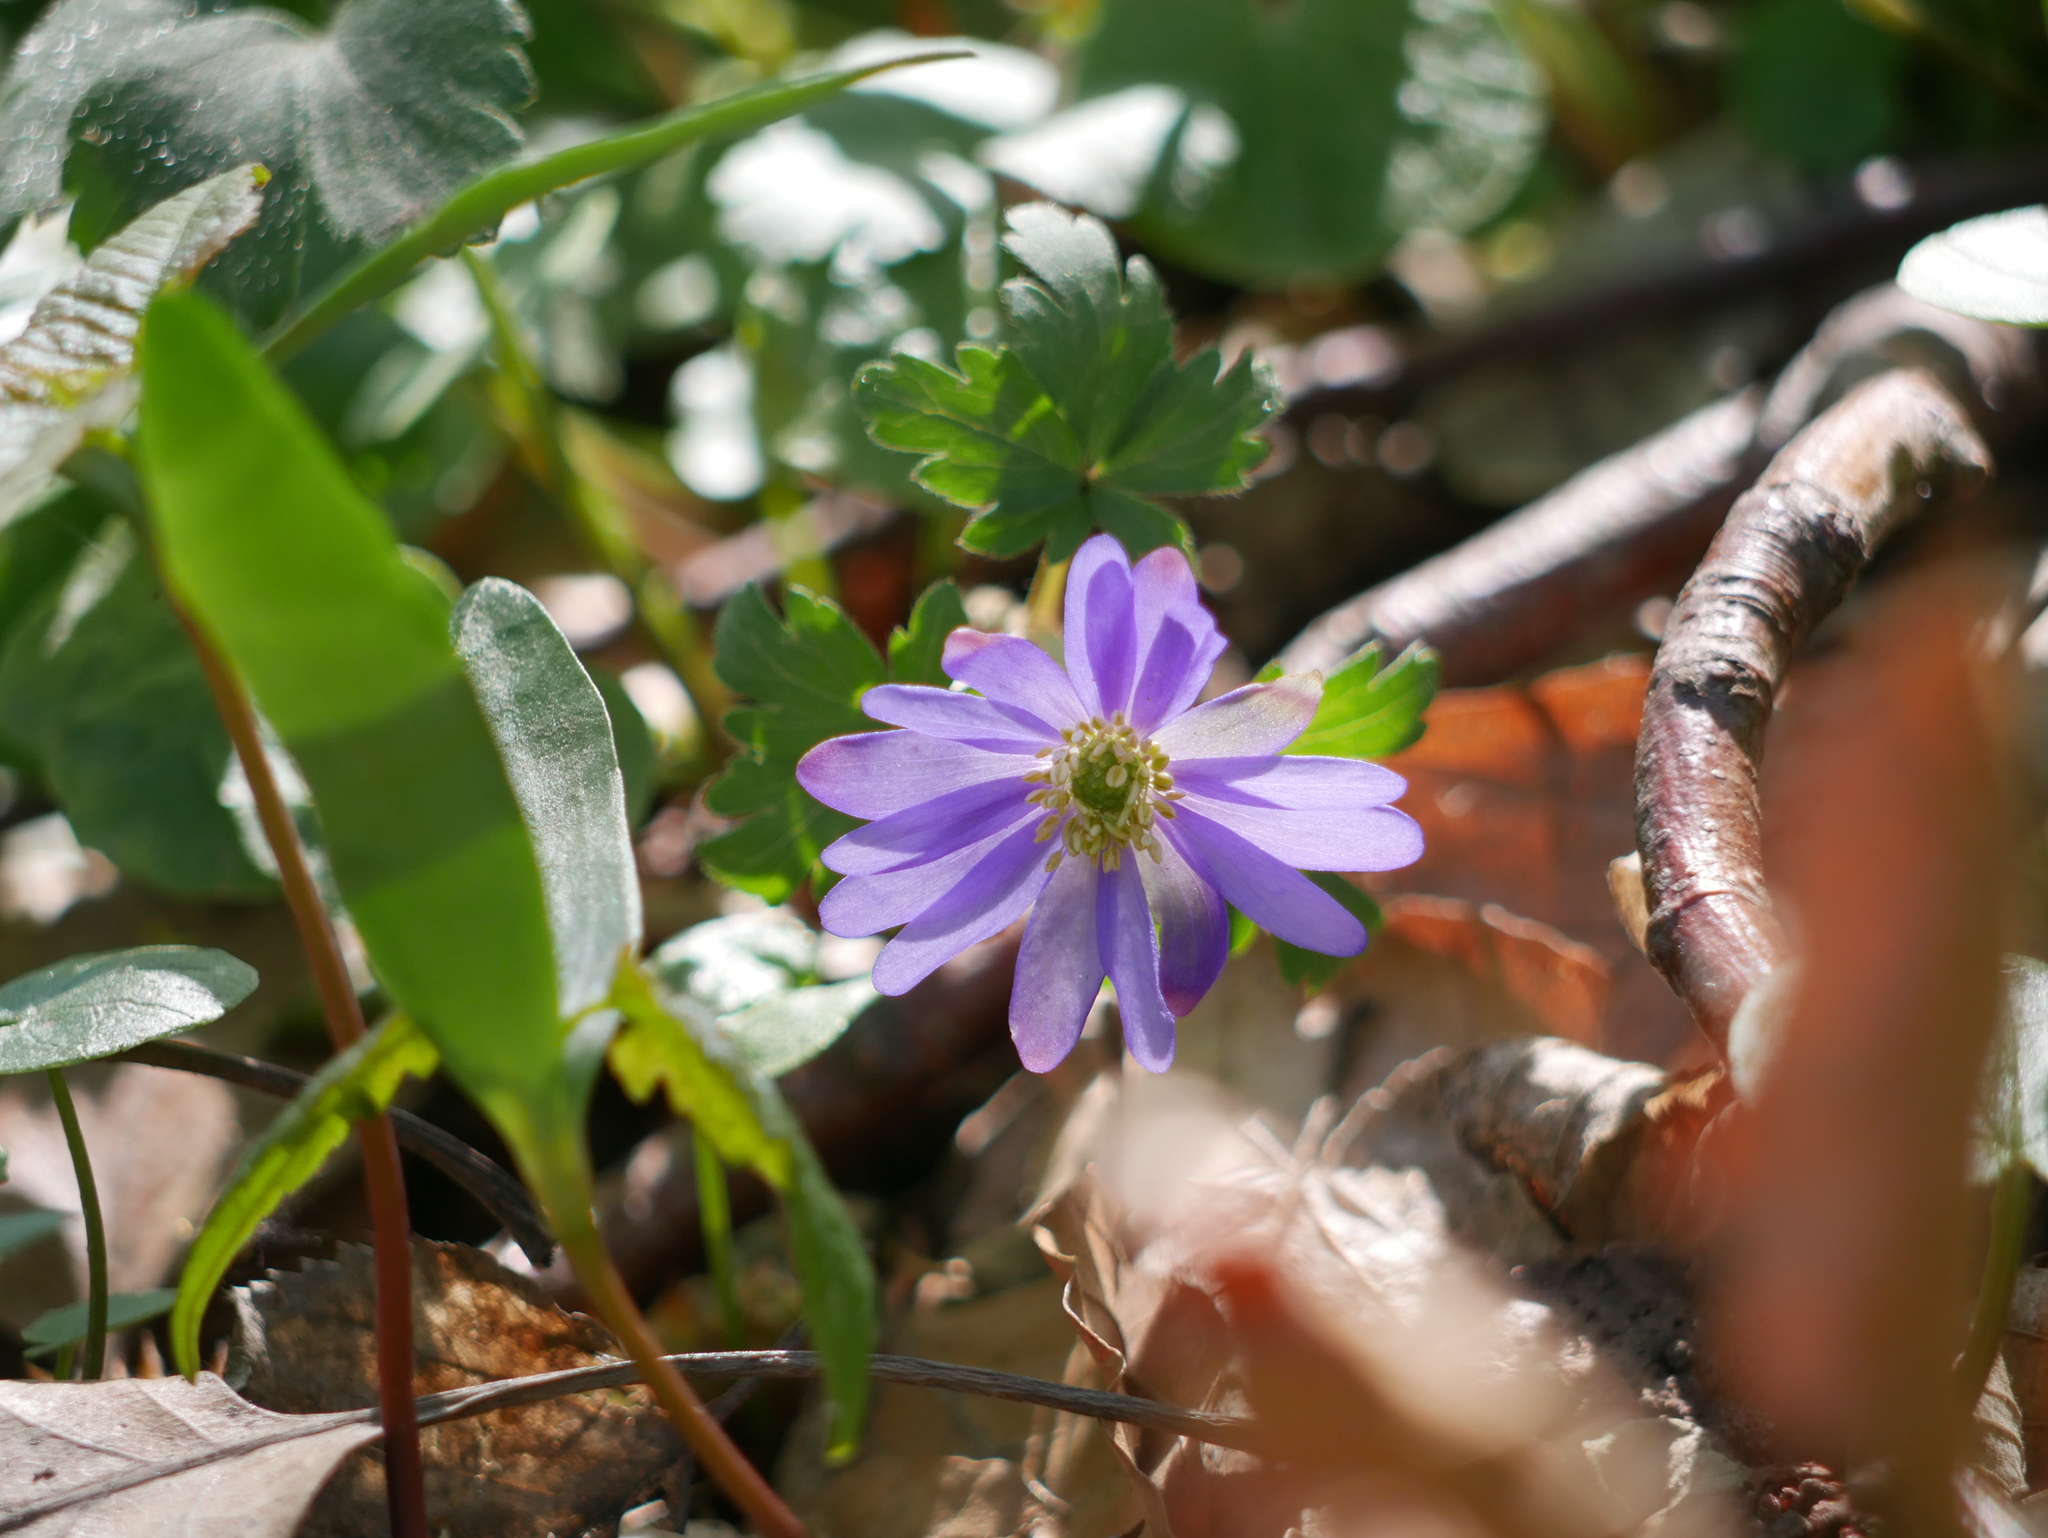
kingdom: Plantae
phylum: Tracheophyta
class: Magnoliopsida
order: Ranunculales
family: Ranunculaceae
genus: Anemone
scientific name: Anemone blanda
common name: Balkan anemone
